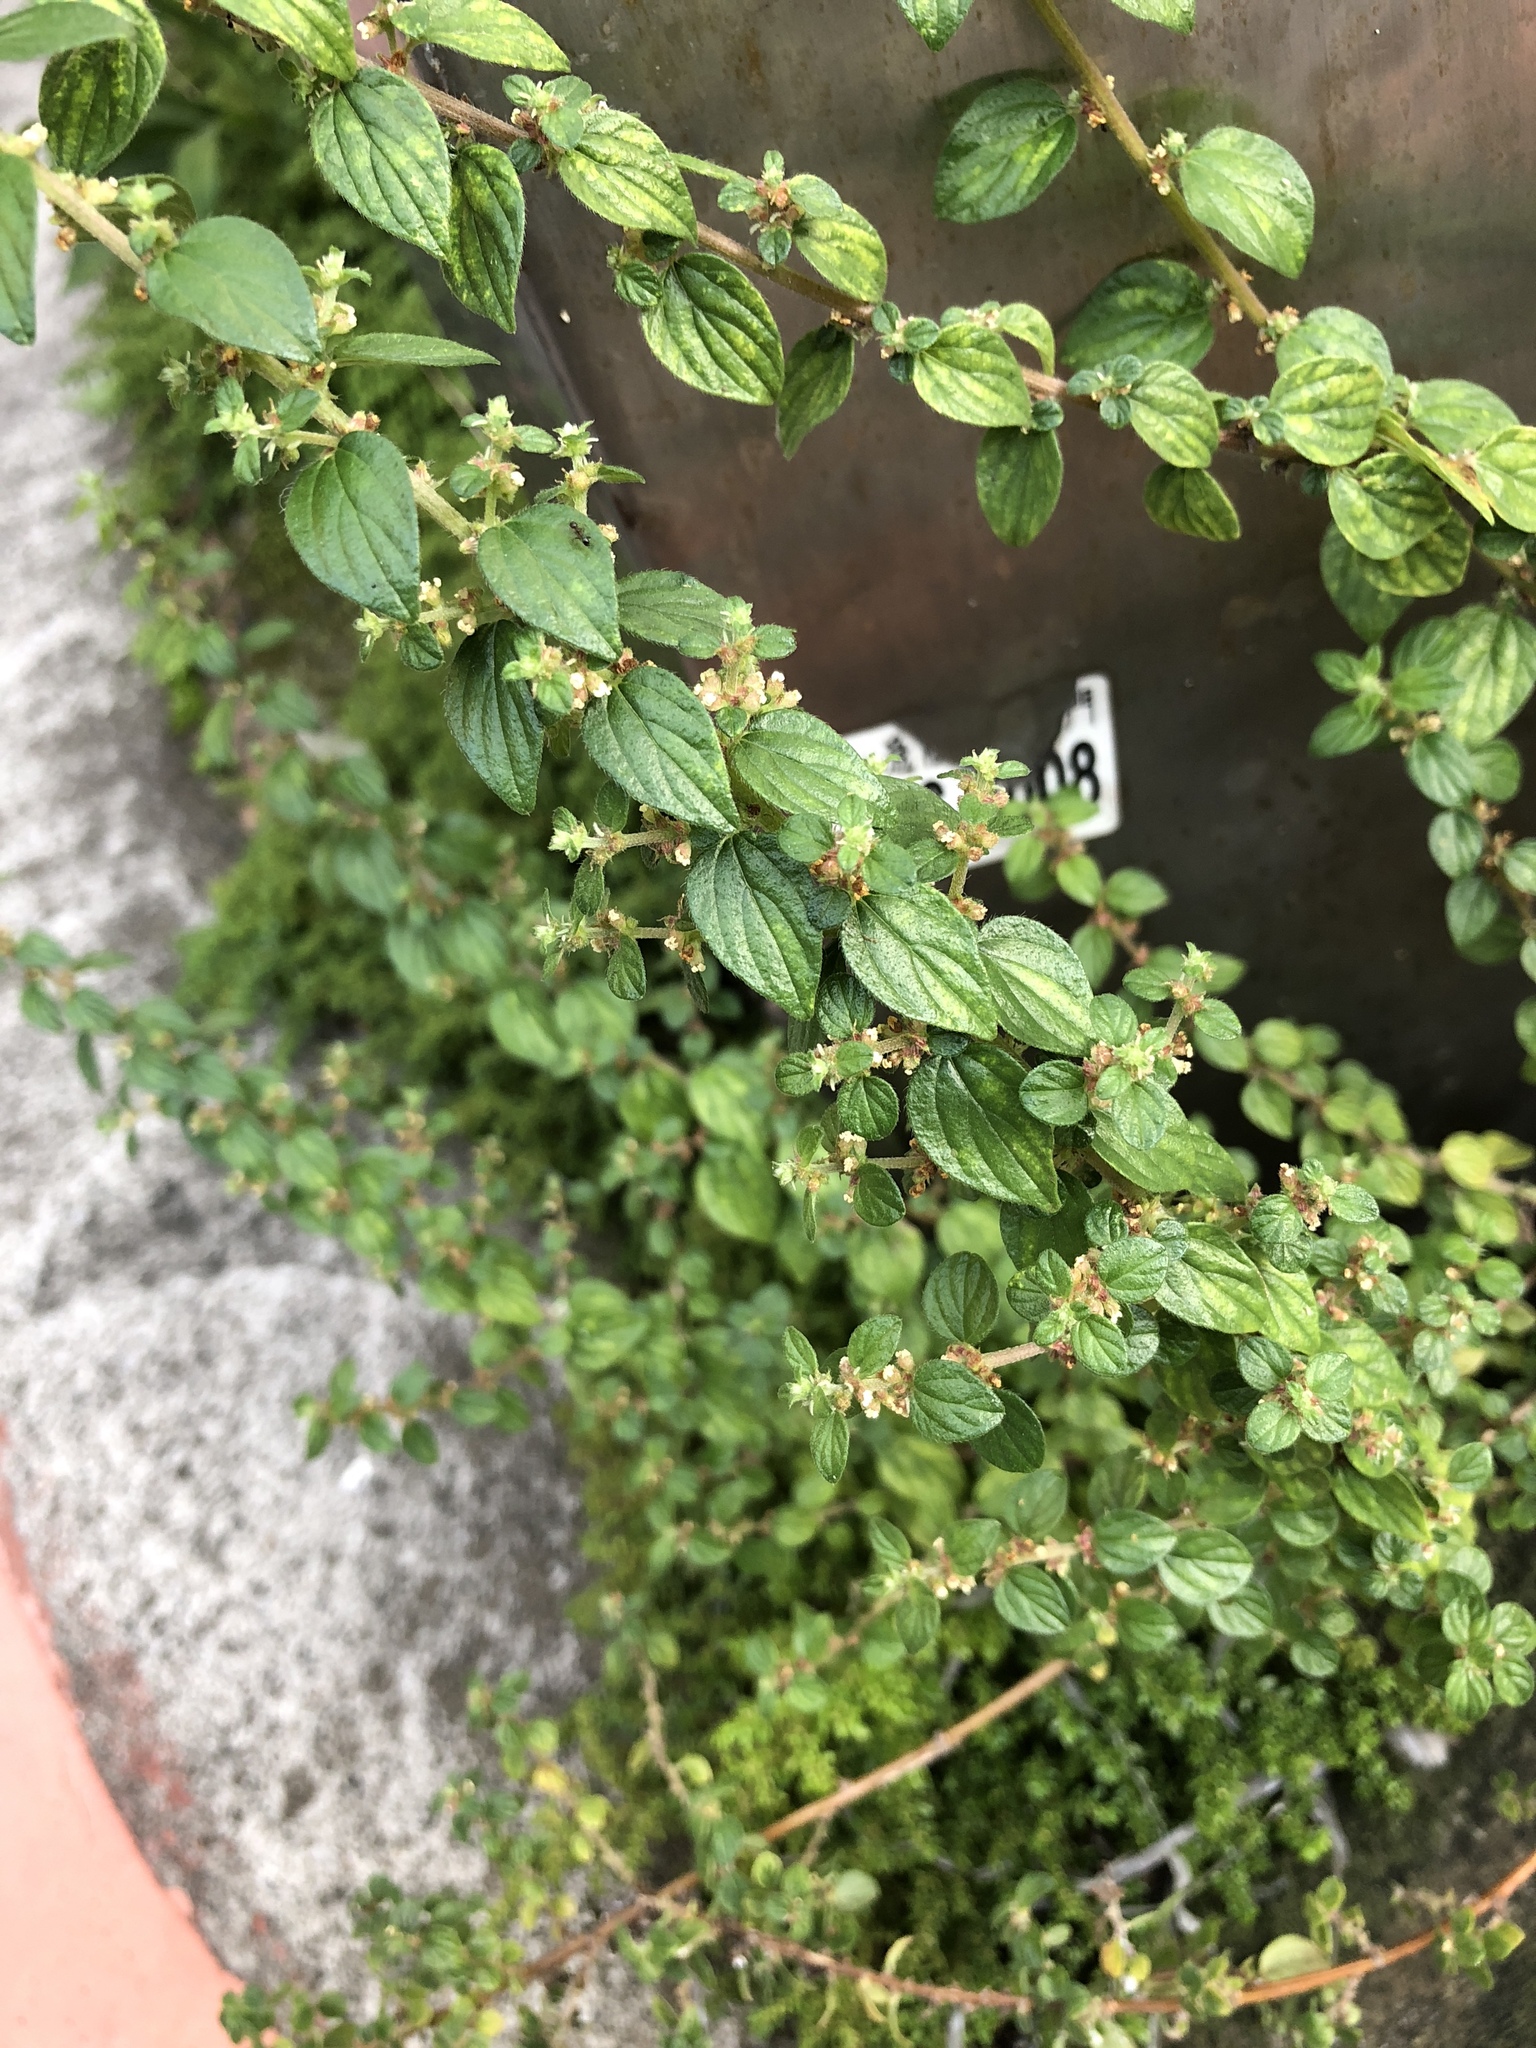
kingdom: Plantae
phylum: Tracheophyta
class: Magnoliopsida
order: Rosales
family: Urticaceae
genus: Pouzolzia
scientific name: Pouzolzia zeylanica
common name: Graceful pouzolzsbush
